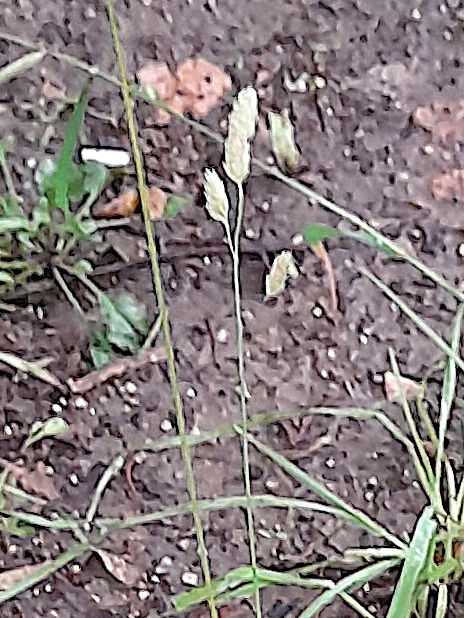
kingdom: Plantae
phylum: Tracheophyta
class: Liliopsida
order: Poales
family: Poaceae
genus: Dactylis
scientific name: Dactylis glomerata
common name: Orchardgrass
